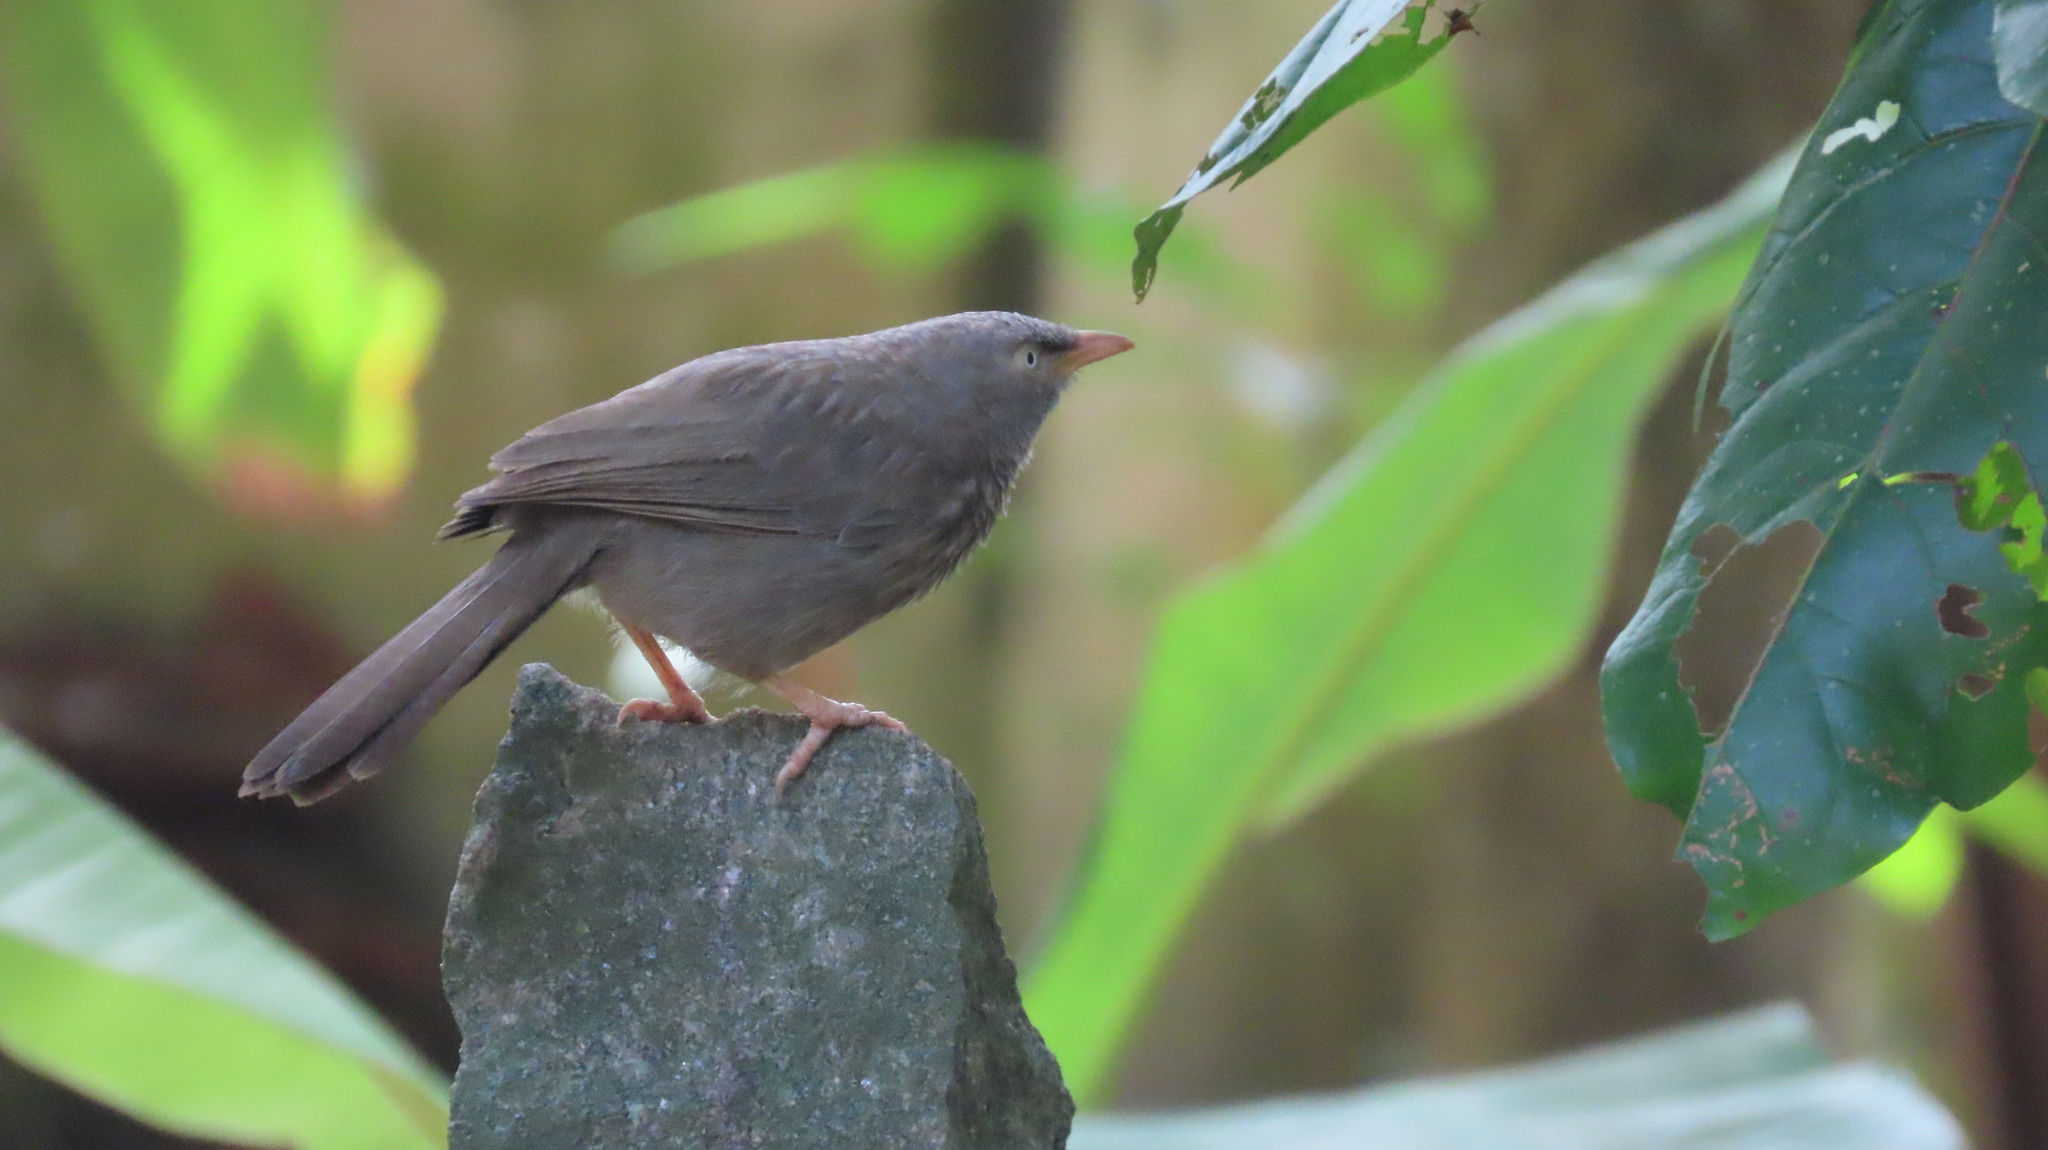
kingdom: Animalia
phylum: Chordata
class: Aves
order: Passeriformes
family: Leiothrichidae
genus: Turdoides
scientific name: Turdoides striata
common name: Jungle babbler
